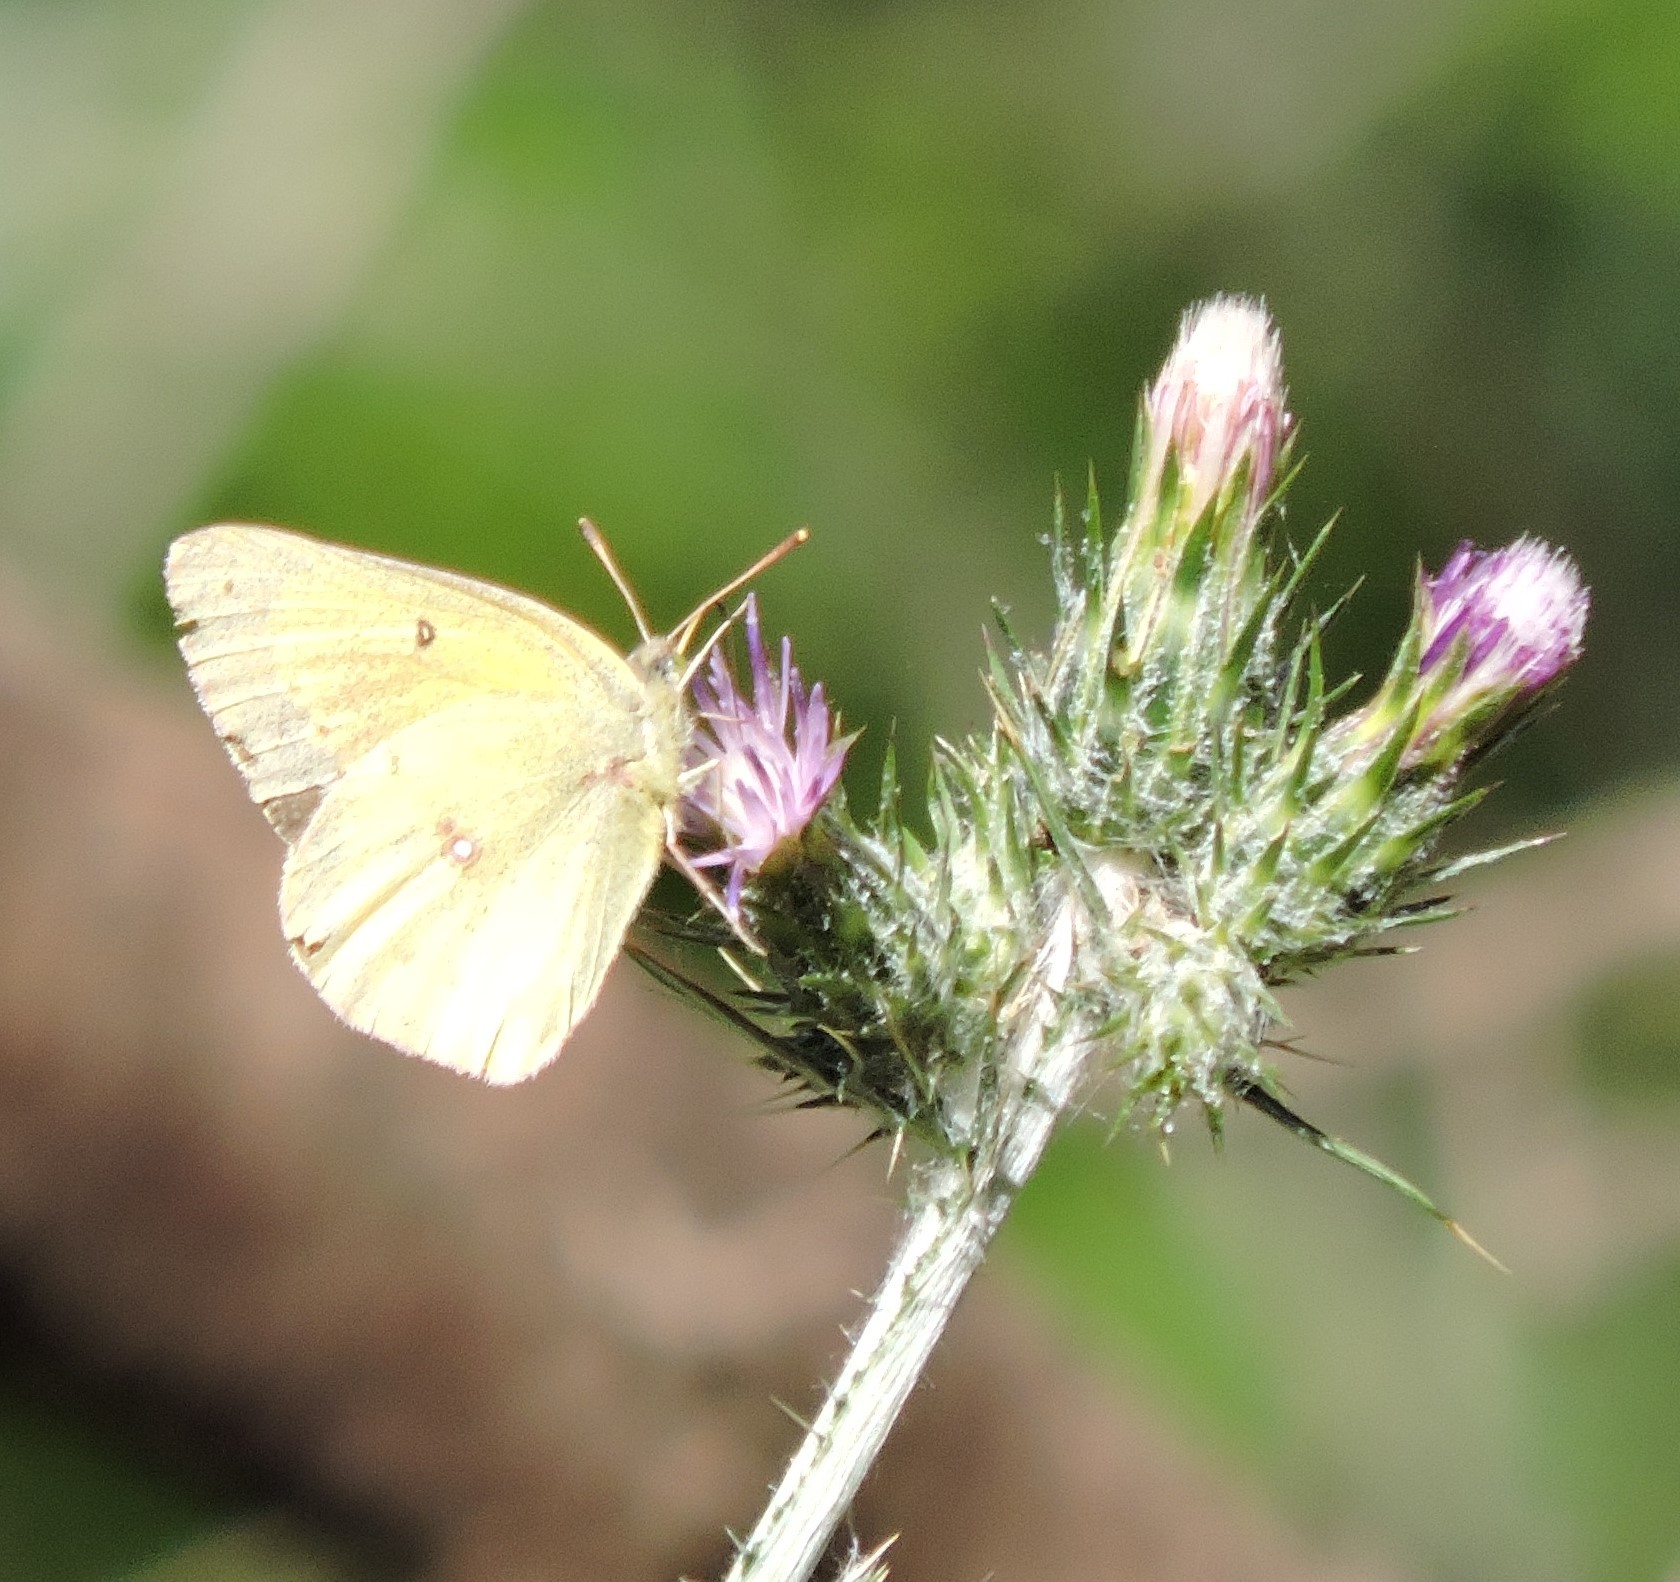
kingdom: Animalia
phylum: Arthropoda
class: Insecta
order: Lepidoptera
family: Pieridae
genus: Colias
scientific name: Colias eurytheme
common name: Alfalfa butterfly
